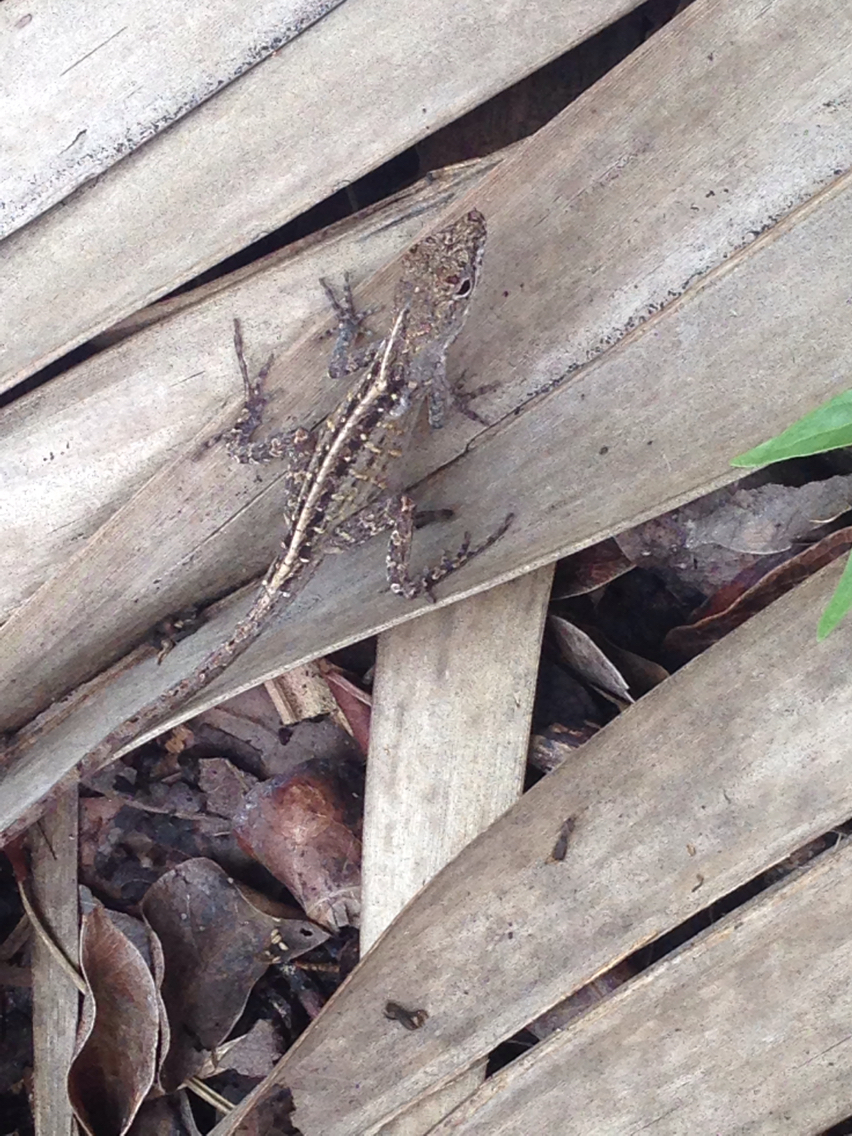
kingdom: Animalia
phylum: Chordata
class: Squamata
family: Dactyloidae
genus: Anolis
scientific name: Anolis sagrei
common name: Brown anole
